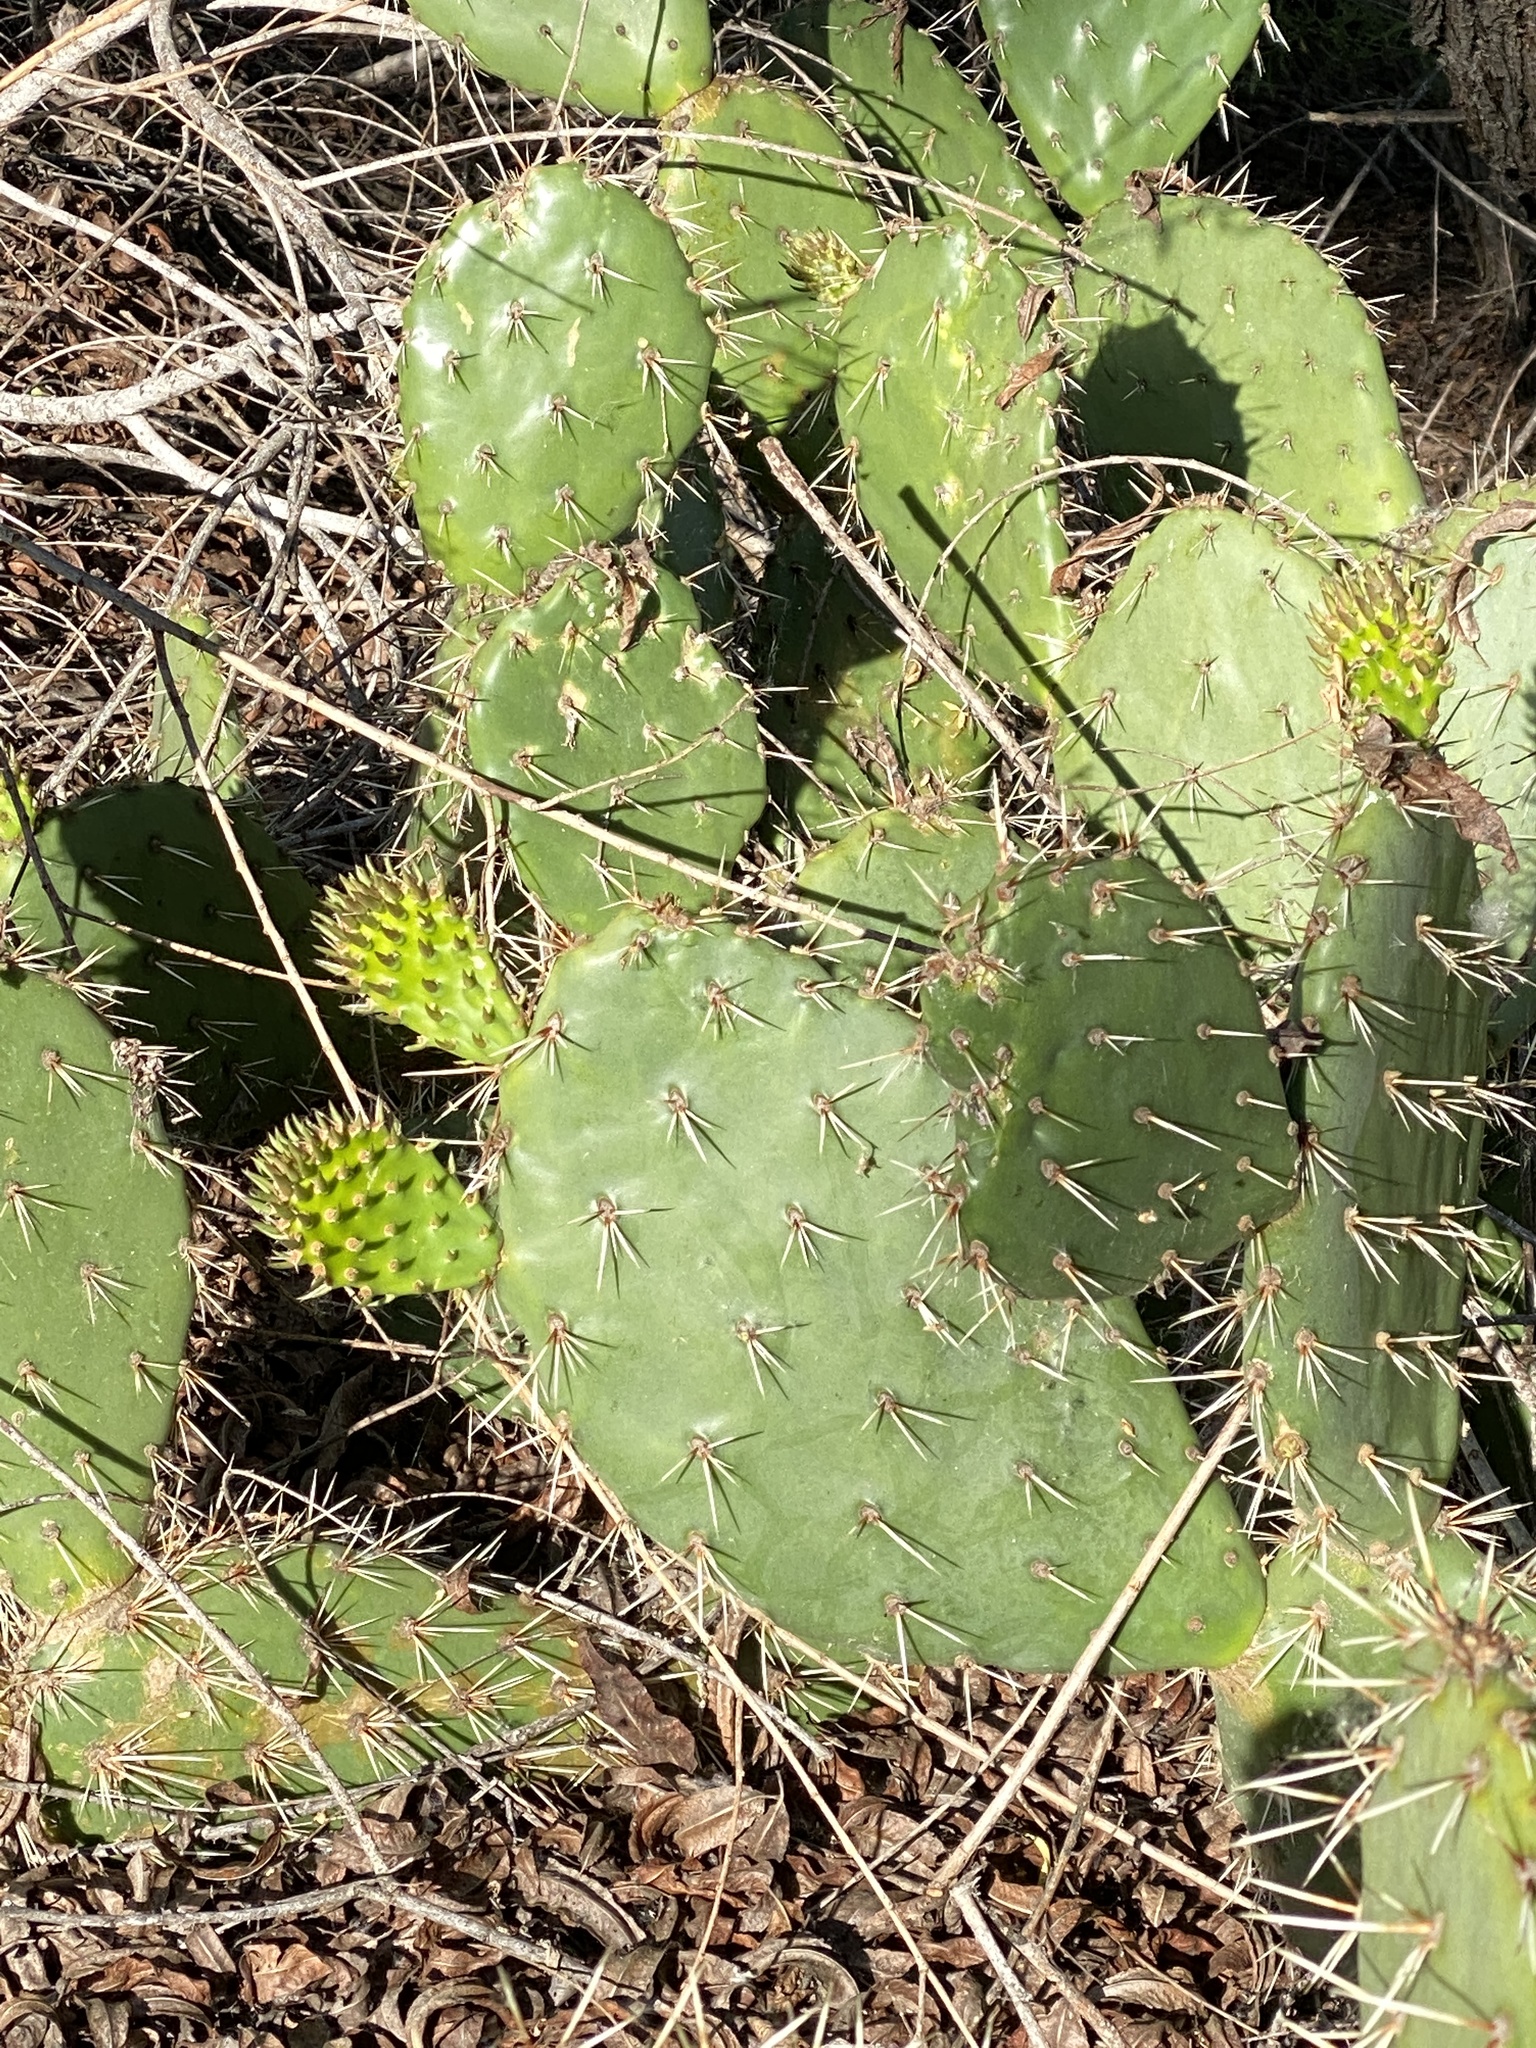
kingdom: Plantae
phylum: Tracheophyta
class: Magnoliopsida
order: Caryophyllales
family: Cactaceae
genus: Opuntia
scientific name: Opuntia littoralis
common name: Coastal prickly-pear
